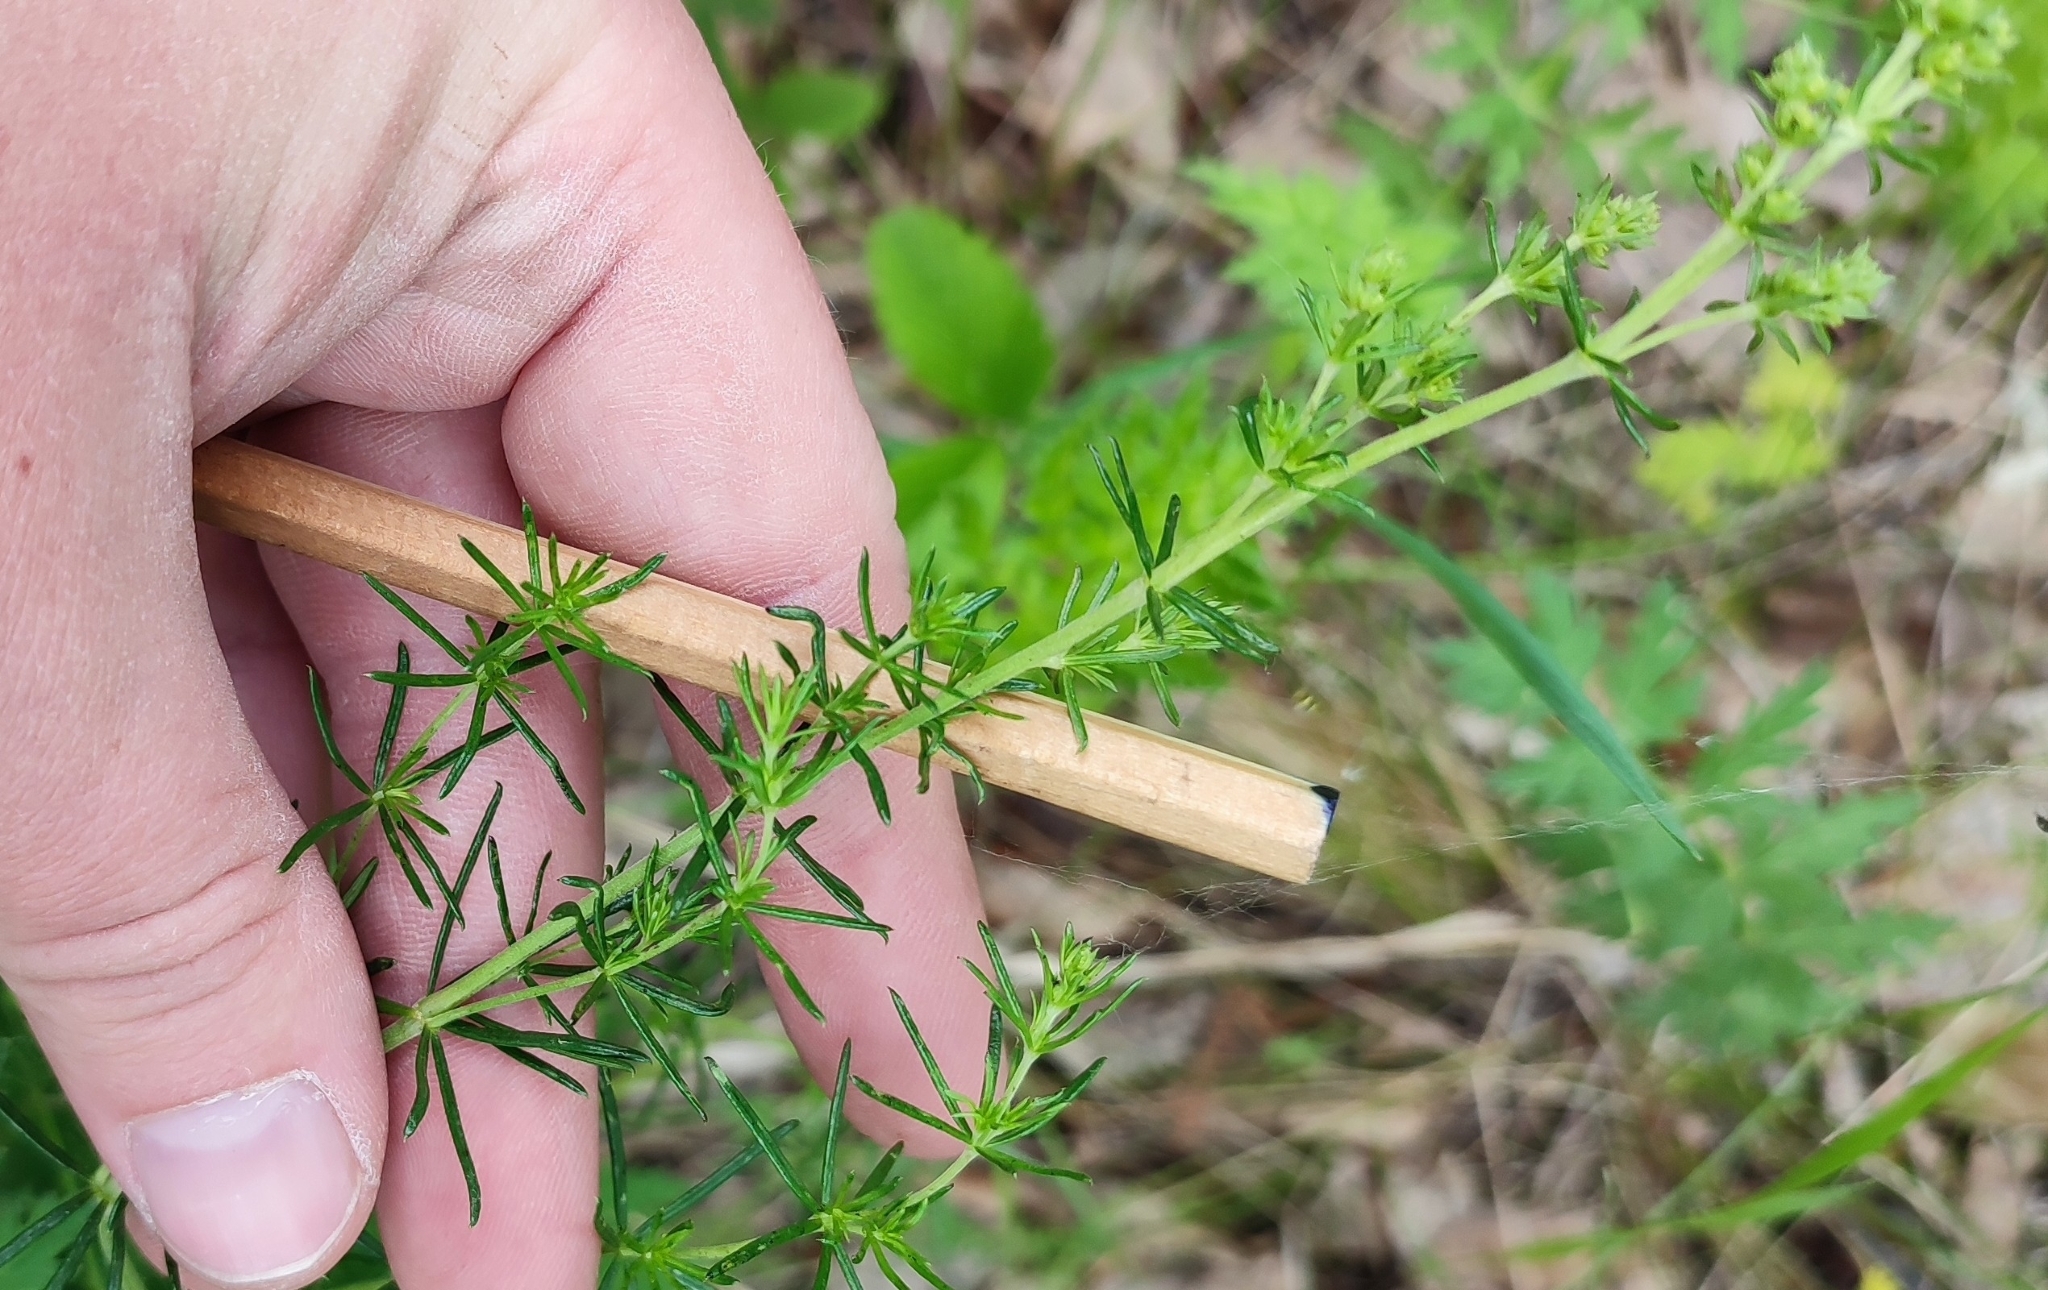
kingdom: Plantae
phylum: Tracheophyta
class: Magnoliopsida
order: Gentianales
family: Rubiaceae
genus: Galium
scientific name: Galium verum
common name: Lady's bedstraw
